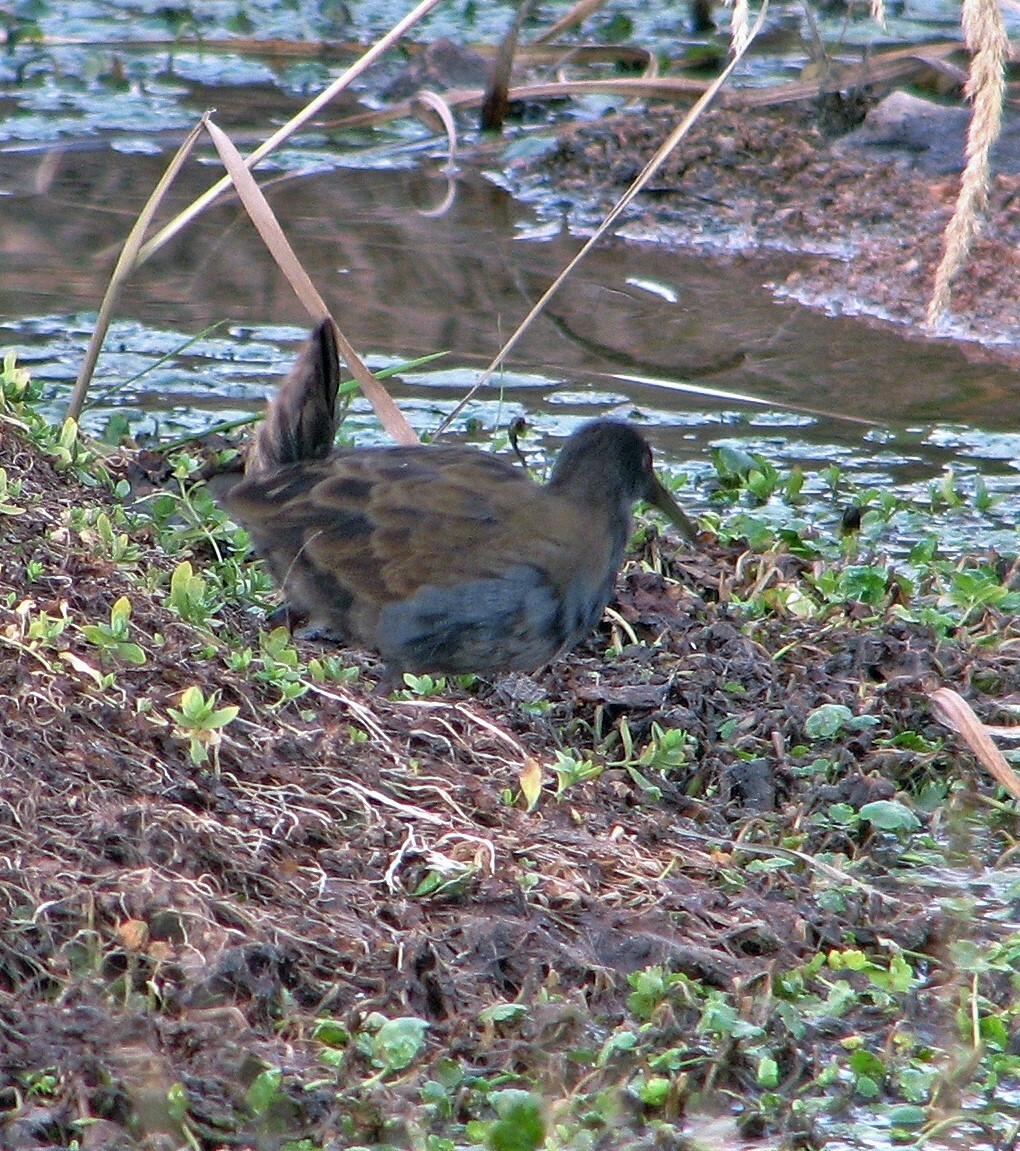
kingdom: Animalia
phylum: Chordata
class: Aves
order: Gruiformes
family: Rallidae
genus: Pardirallus
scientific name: Pardirallus sanguinolentus
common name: Plumbeous rail
